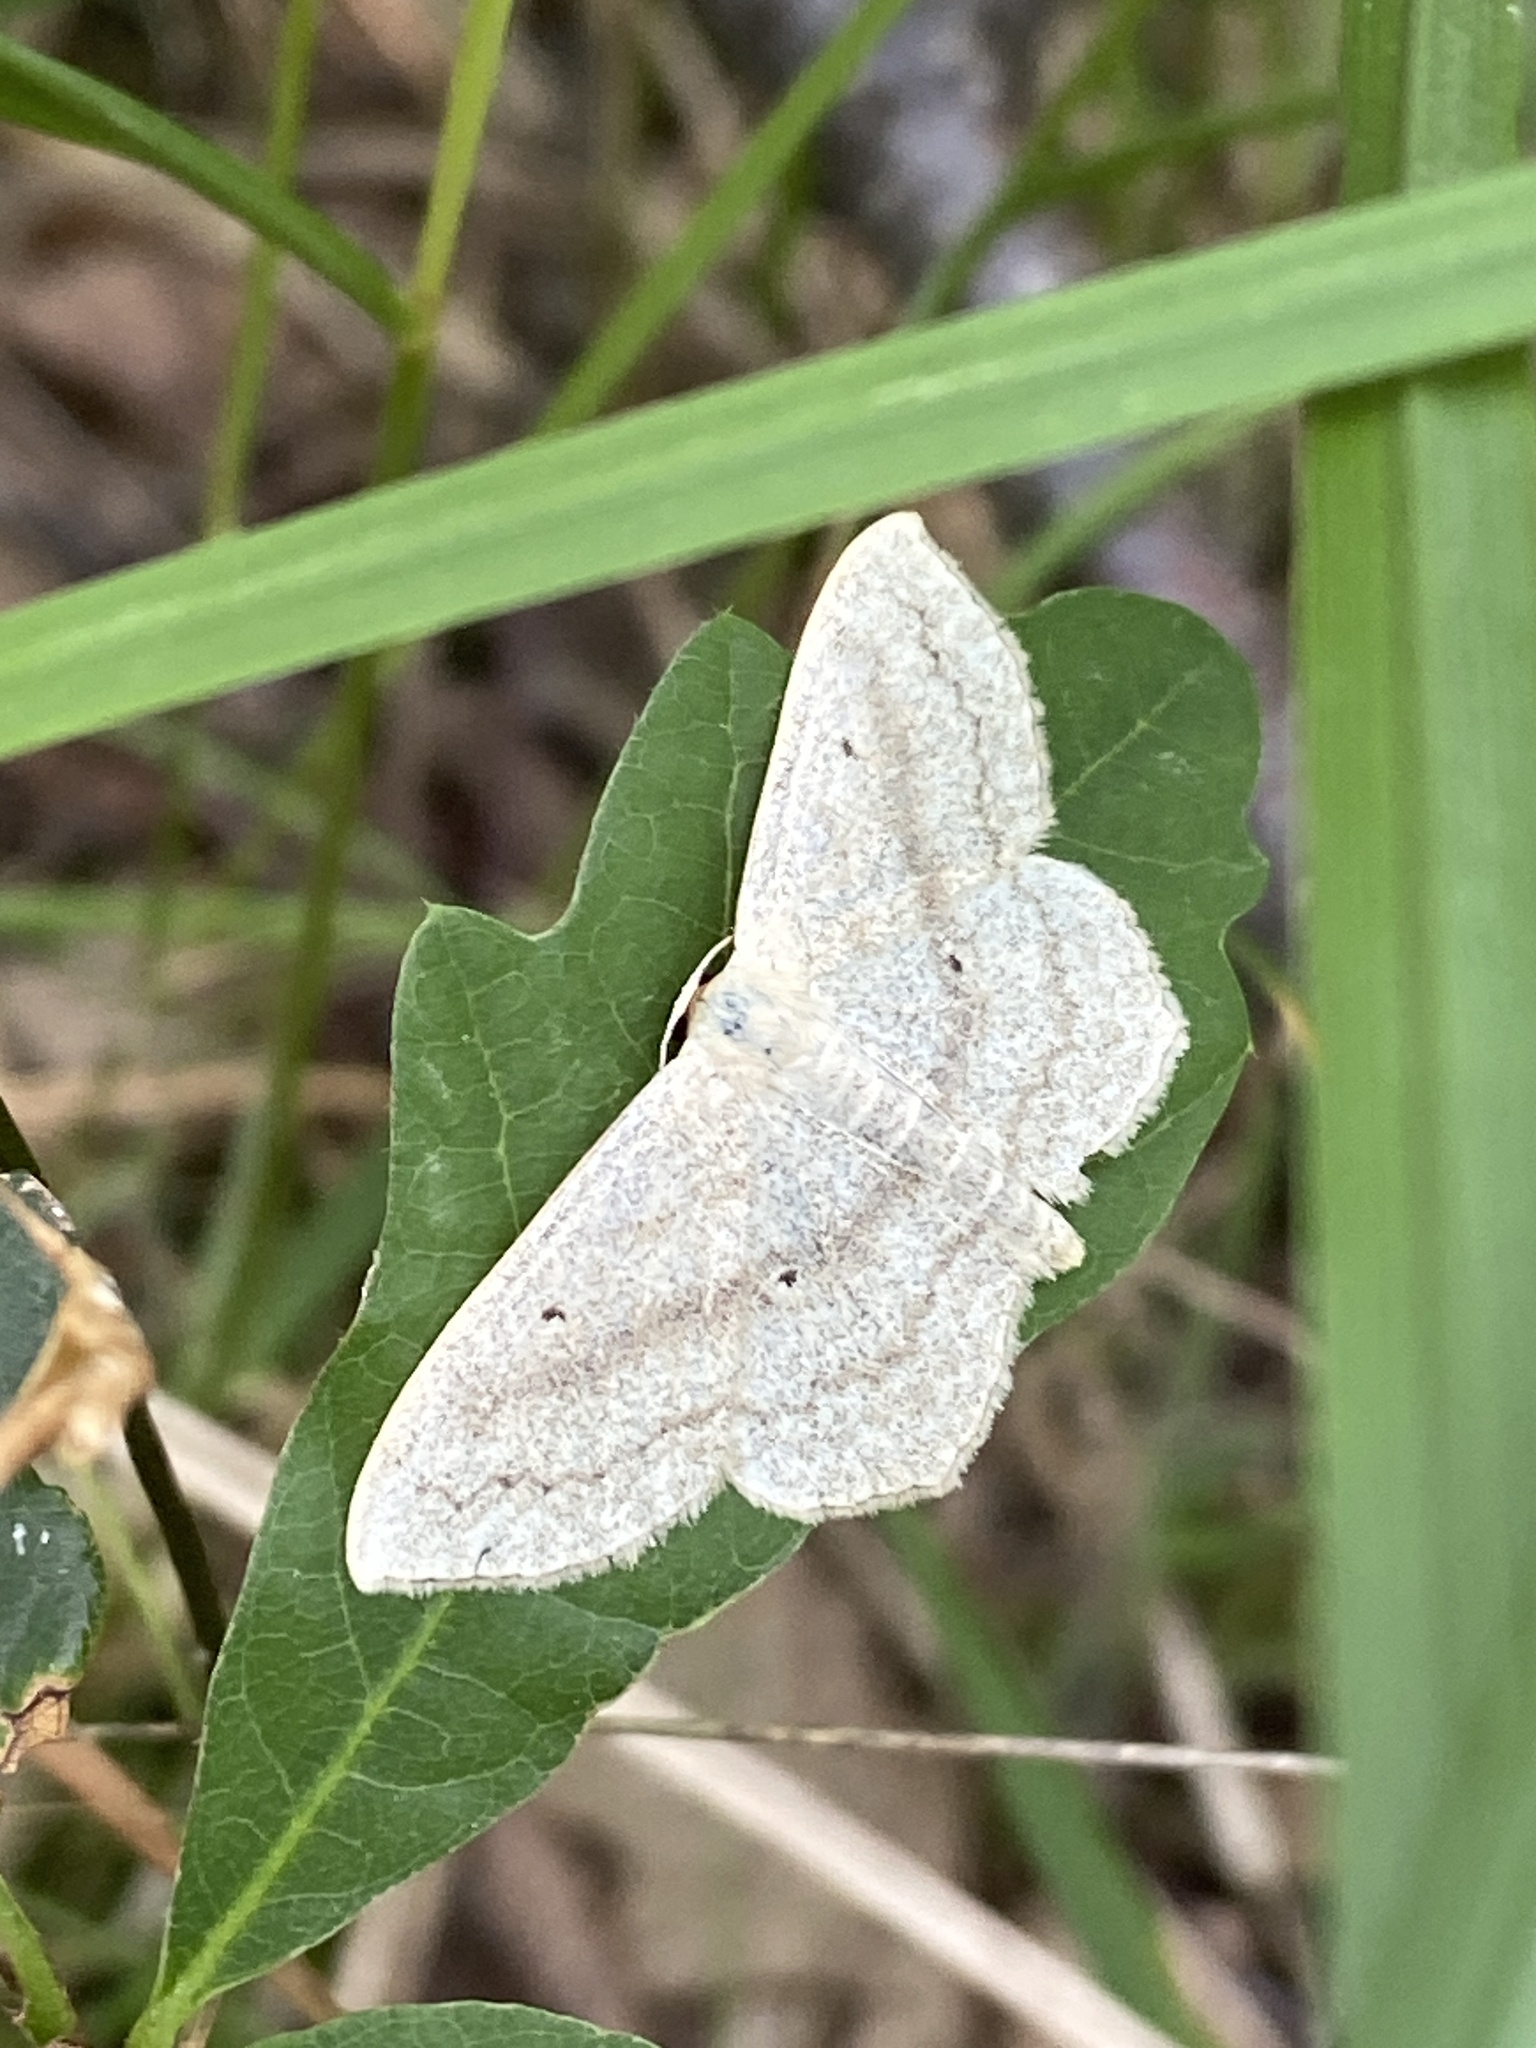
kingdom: Animalia
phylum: Arthropoda
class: Insecta
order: Lepidoptera
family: Geometridae
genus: Scopula
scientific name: Scopula nigropunctata
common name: Sub-angled wave
